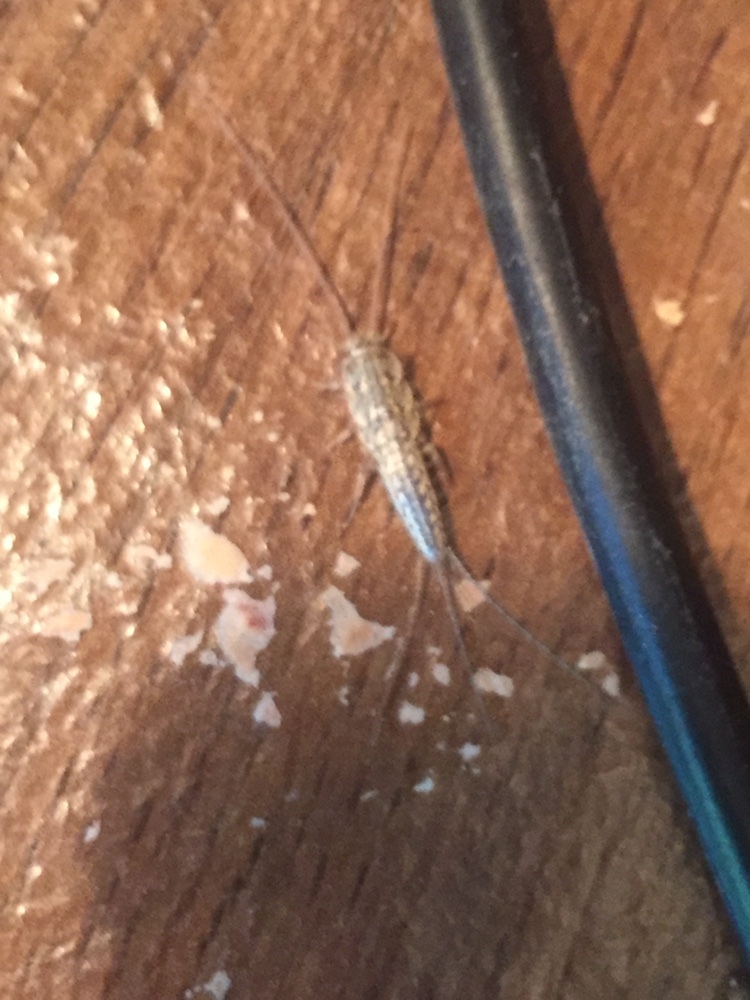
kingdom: Animalia
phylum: Arthropoda
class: Insecta
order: Zygentoma
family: Lepismatidae
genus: Ctenolepisma
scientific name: Ctenolepisma lineata
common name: Four-lined silverfish
